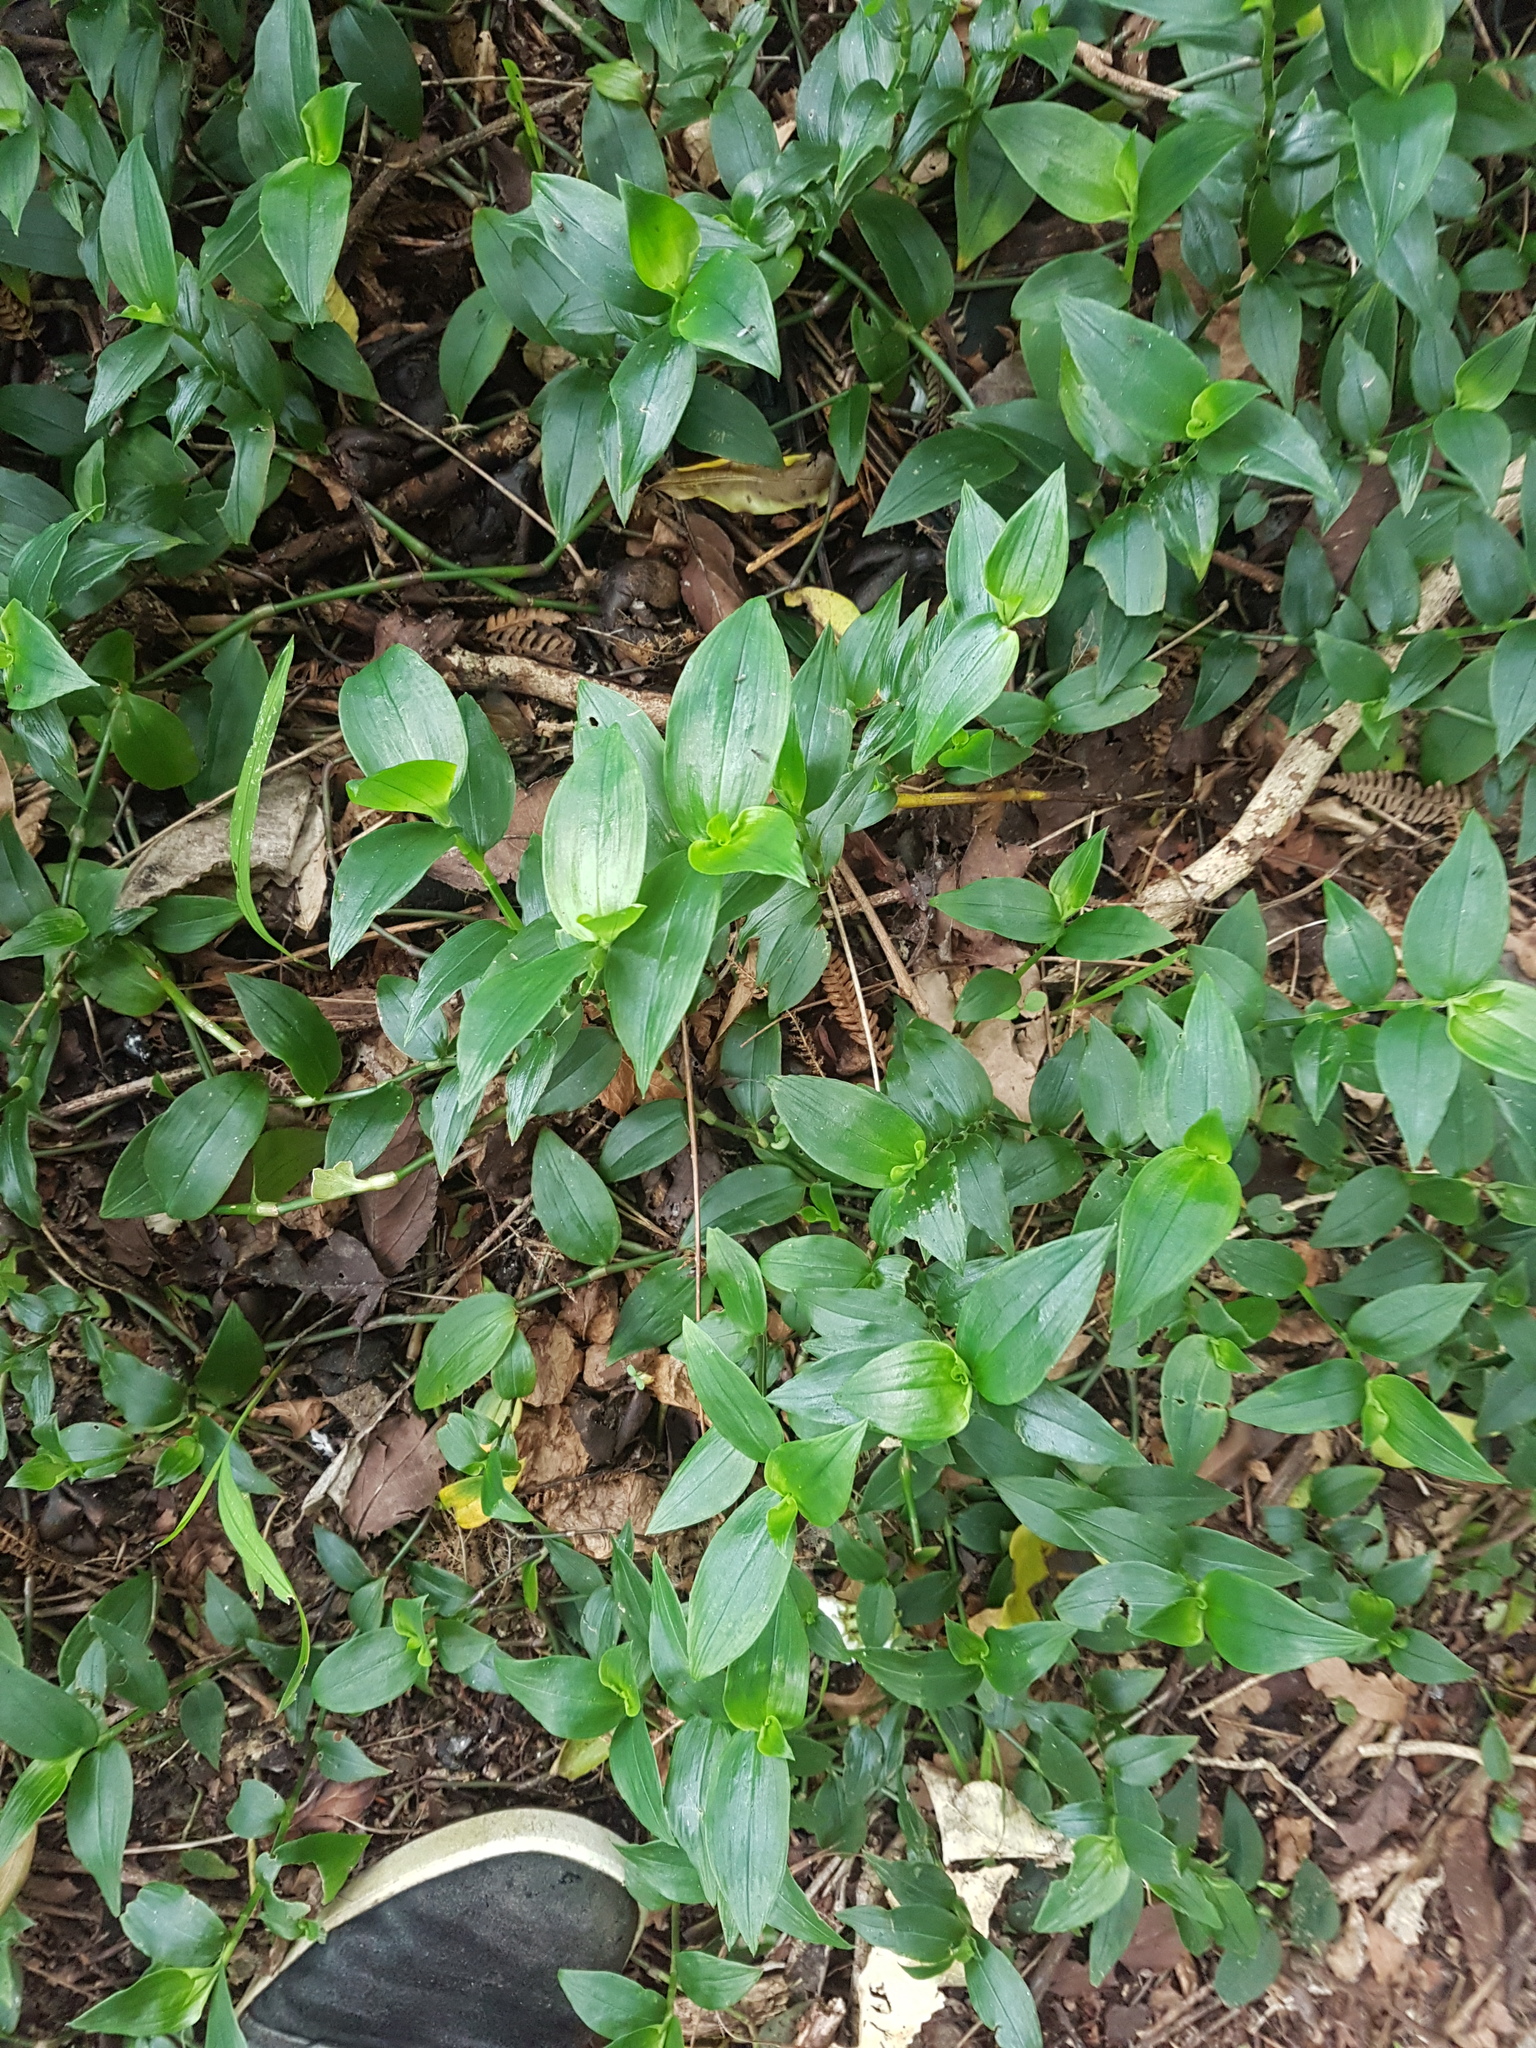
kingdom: Plantae
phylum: Tracheophyta
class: Liliopsida
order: Commelinales
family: Commelinaceae
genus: Tradescantia
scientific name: Tradescantia fluminensis
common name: Wandering-jew
